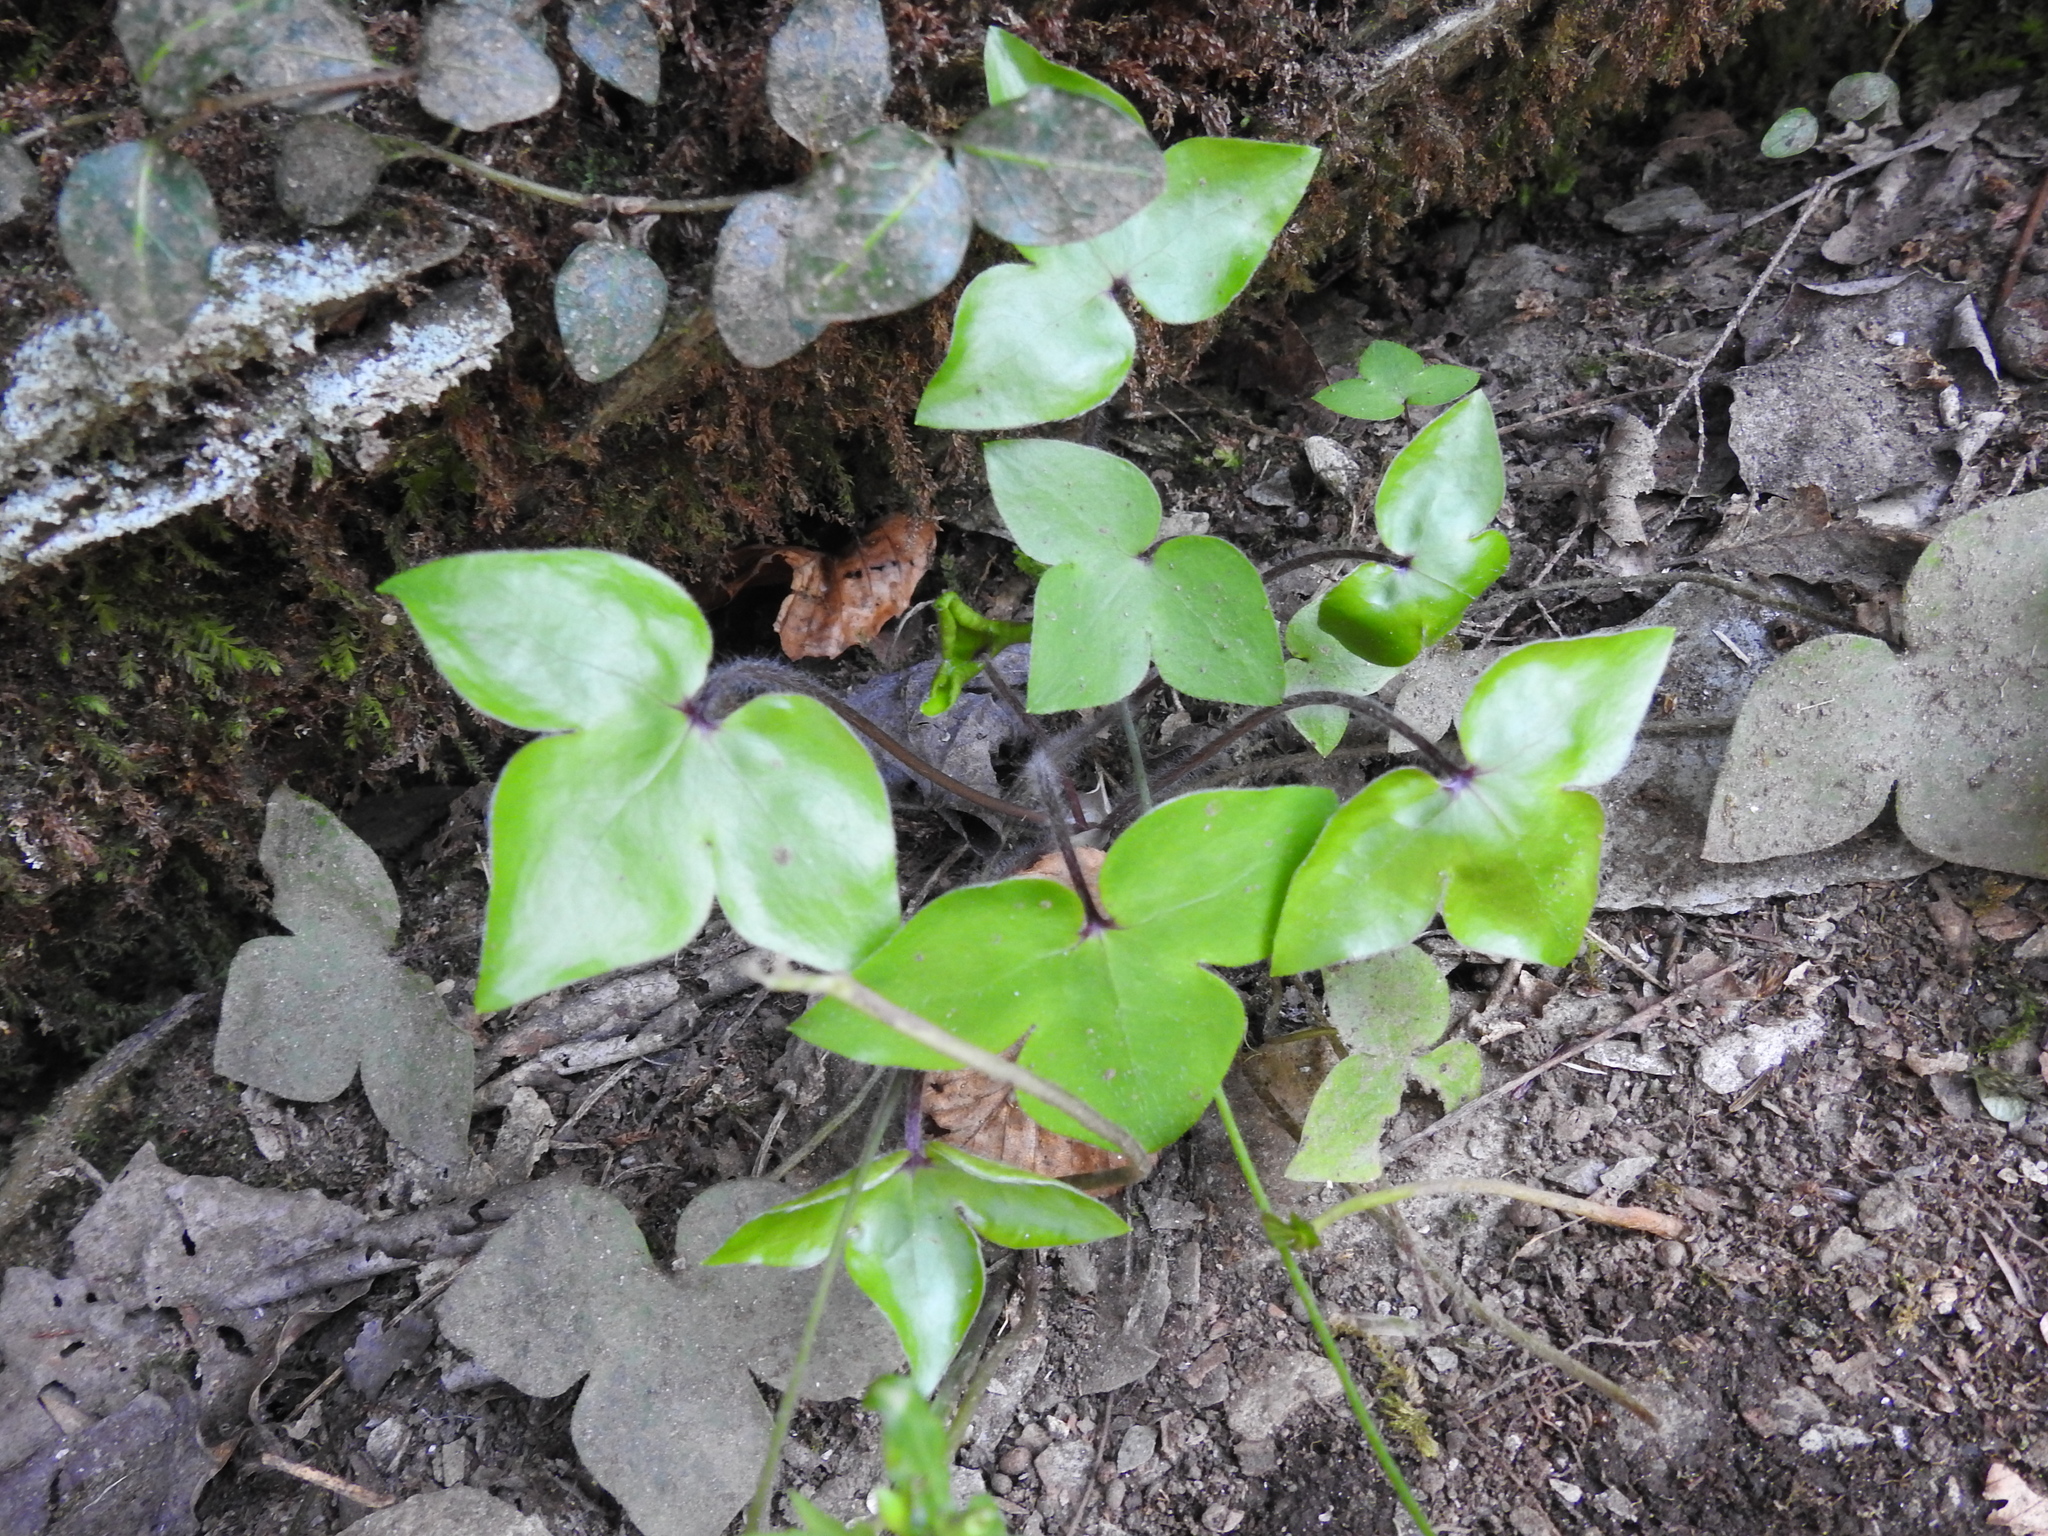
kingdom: Plantae
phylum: Tracheophyta
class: Magnoliopsida
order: Ranunculales
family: Ranunculaceae
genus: Hepatica
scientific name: Hepatica acutiloba
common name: Sharp-lobed hepatica
